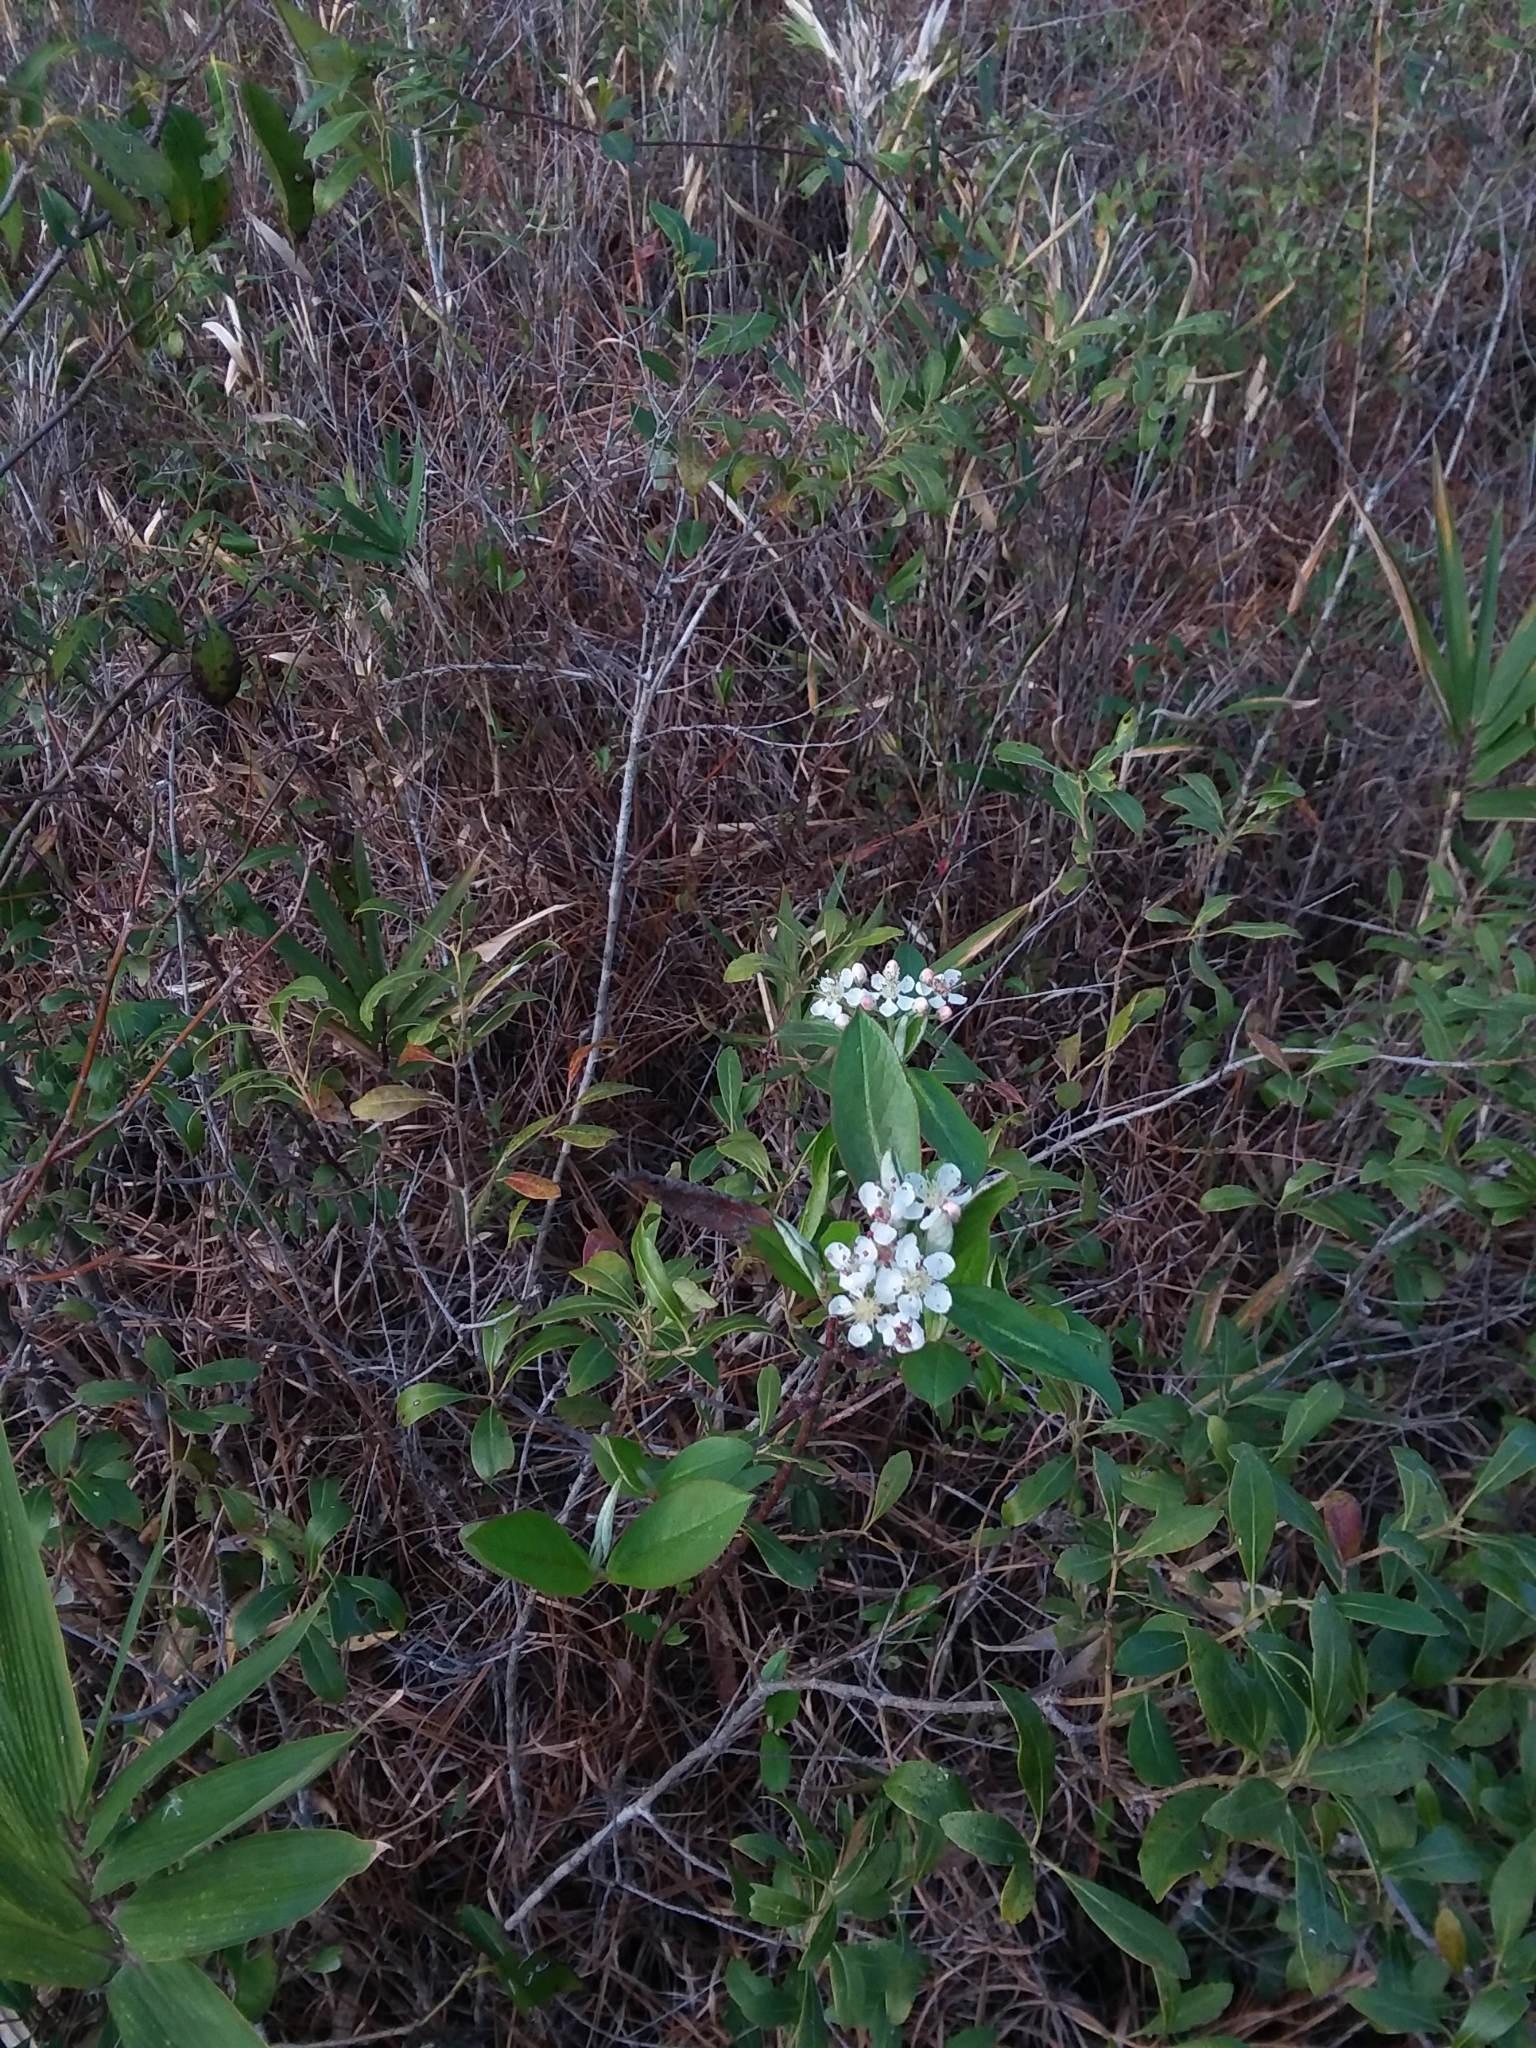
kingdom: Plantae
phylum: Tracheophyta
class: Magnoliopsida
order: Rosales
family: Rosaceae
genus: Aronia
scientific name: Aronia arbutifolia
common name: Red chokeberry
